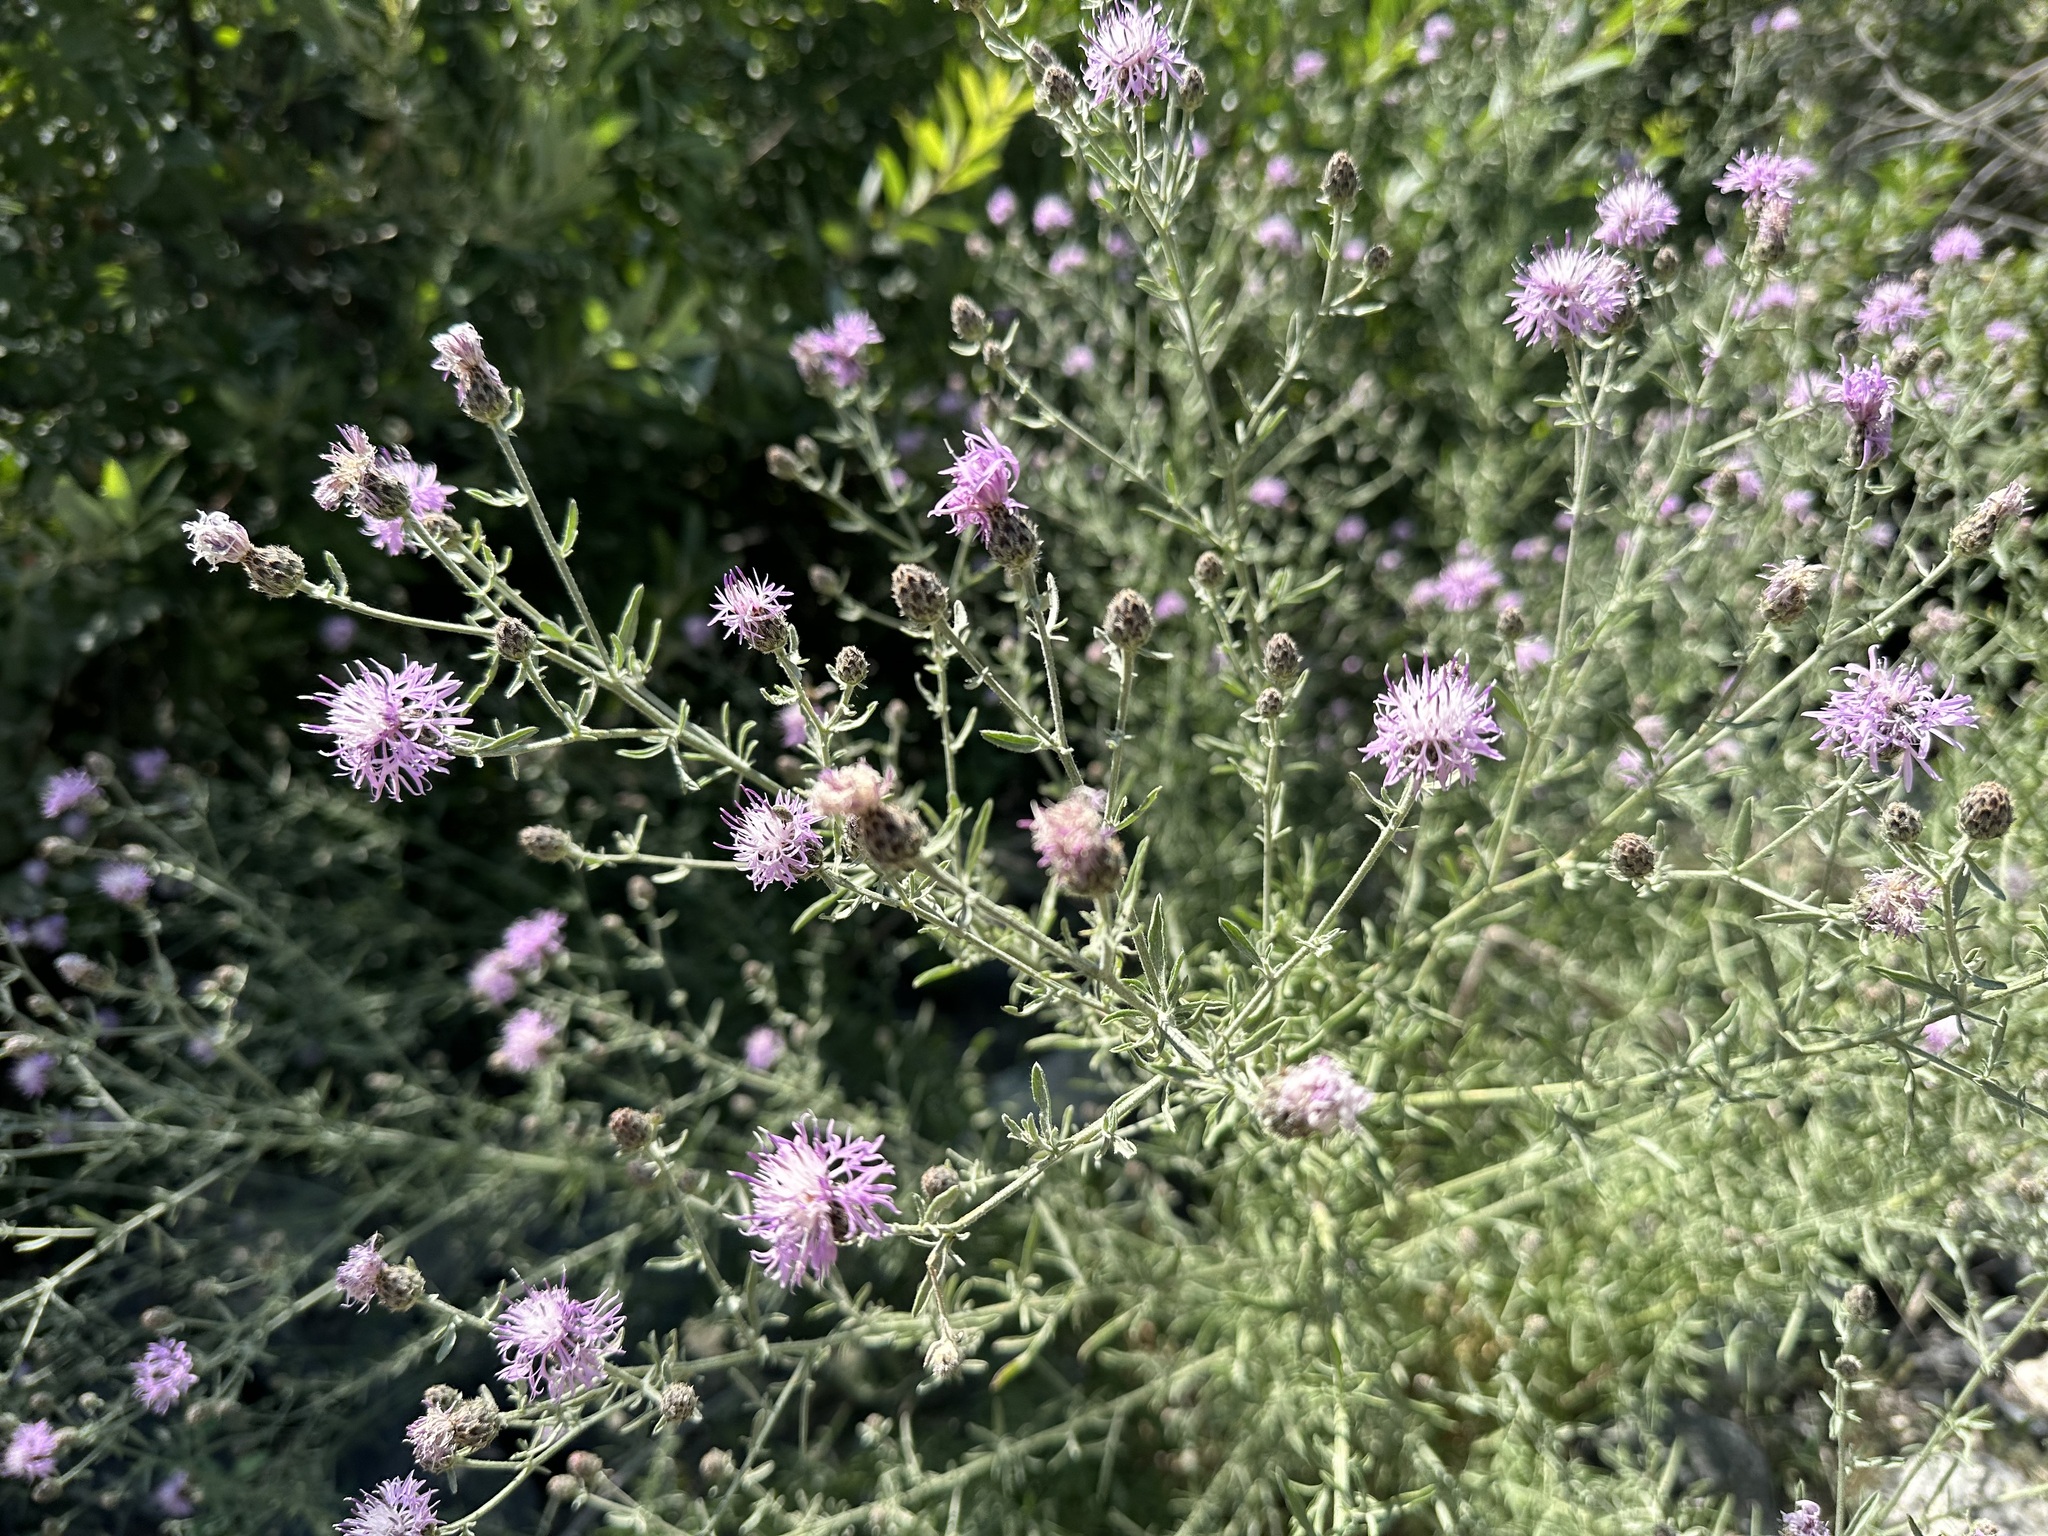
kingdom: Plantae
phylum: Tracheophyta
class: Magnoliopsida
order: Asterales
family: Asteraceae
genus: Centaurea
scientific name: Centaurea stoebe
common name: Spotted knapweed
